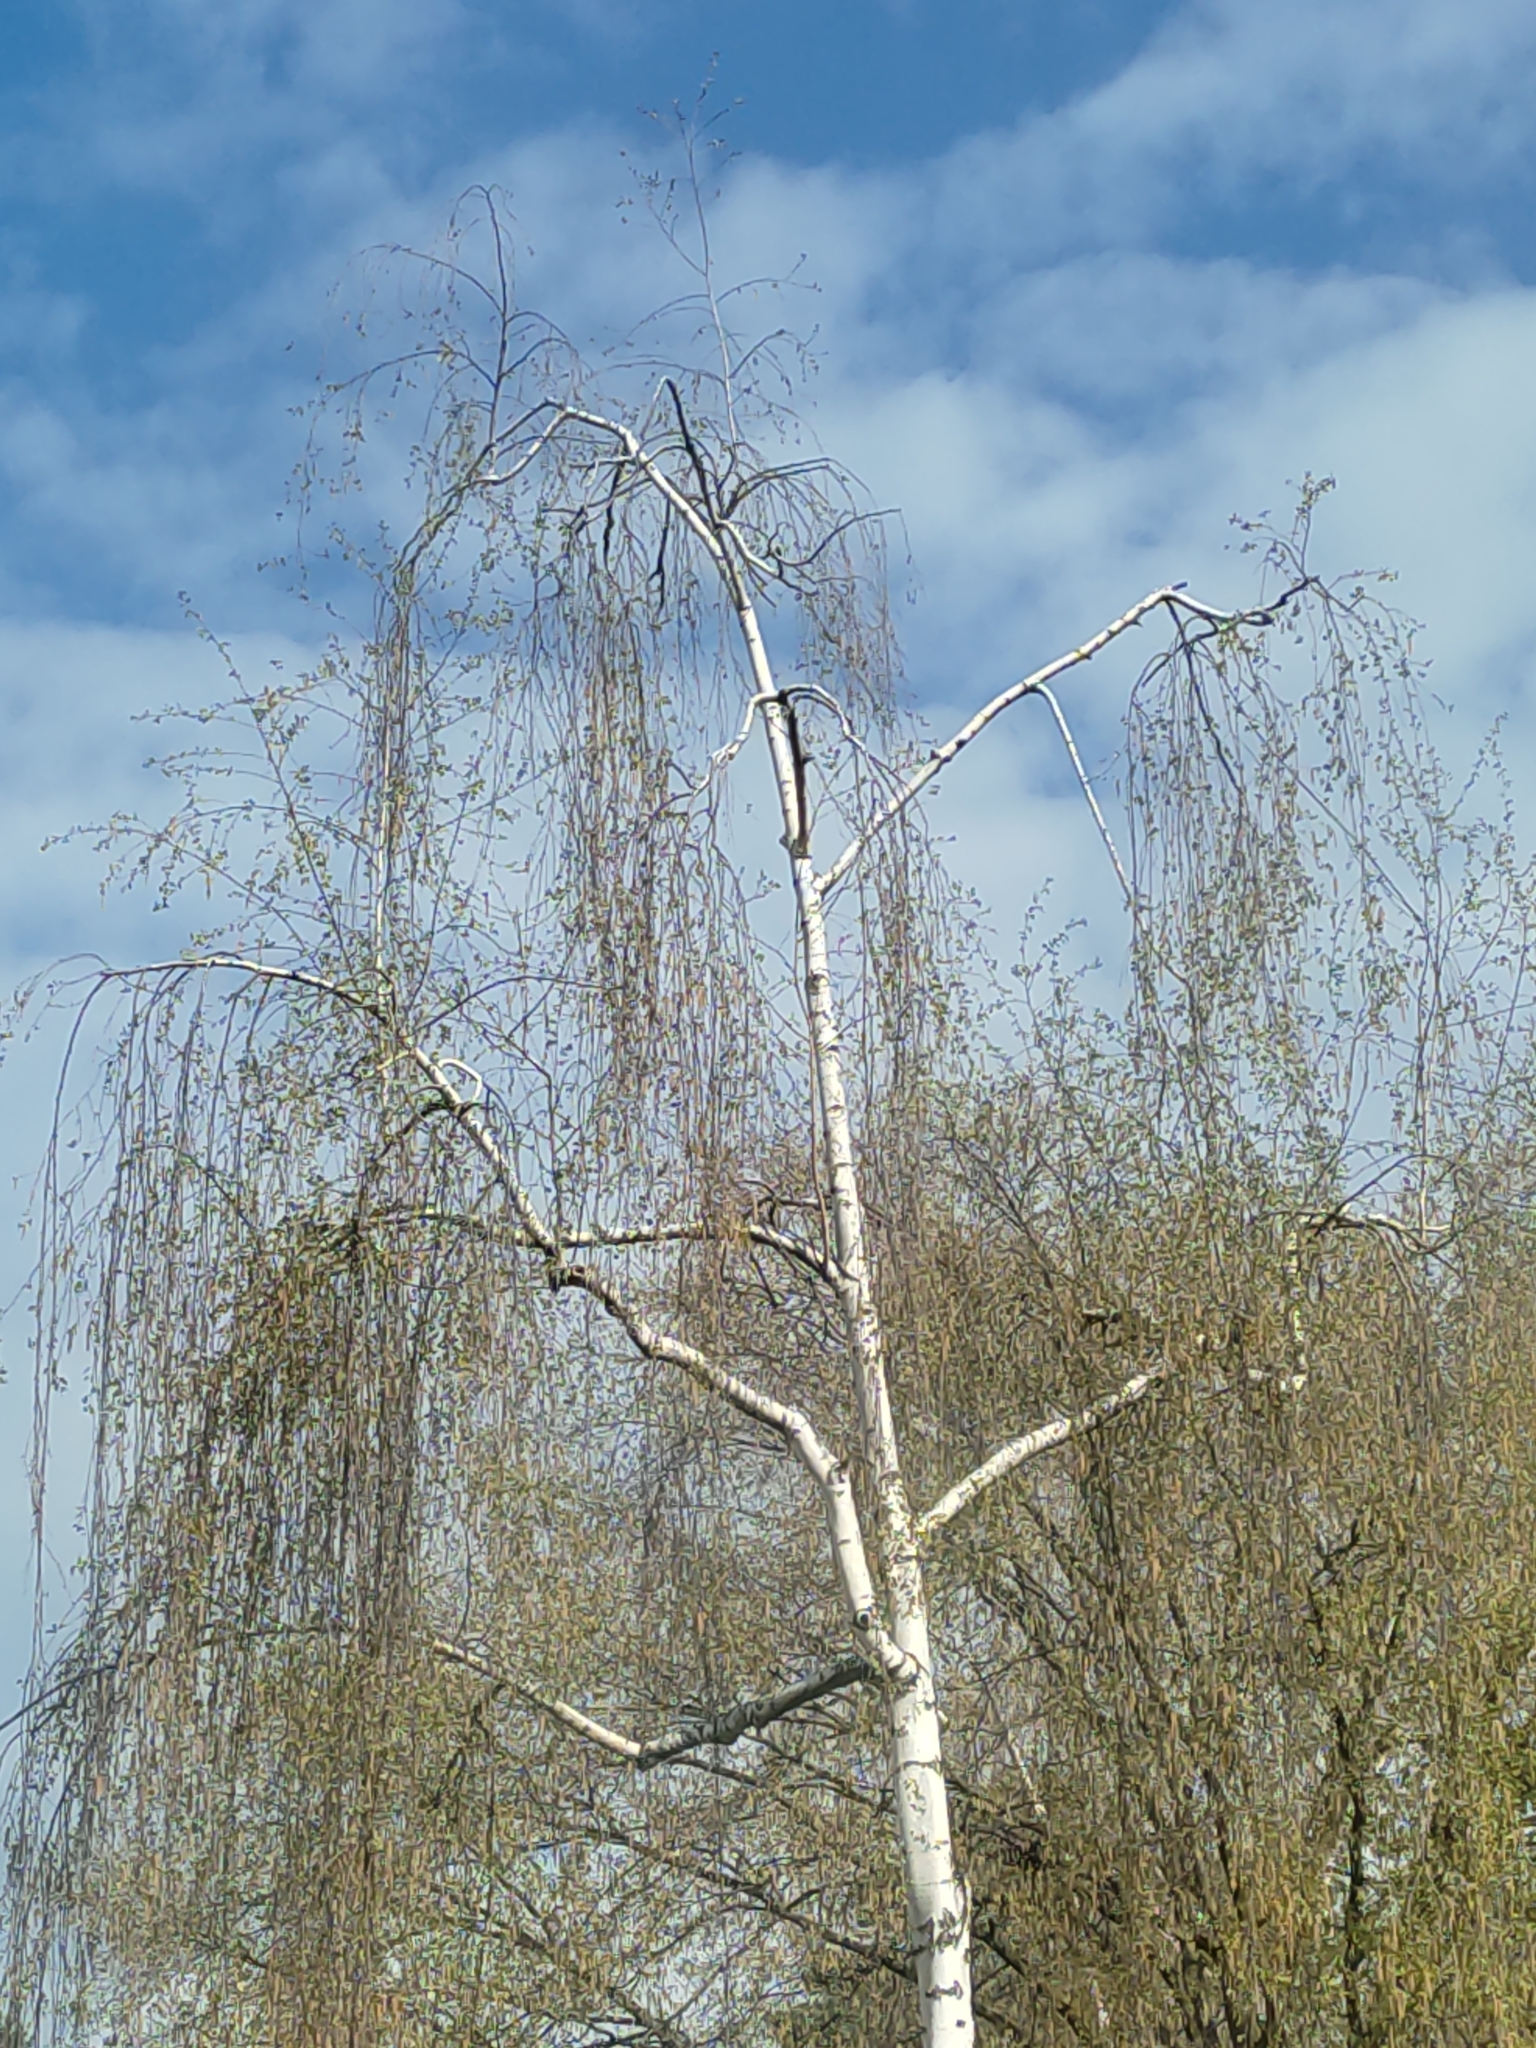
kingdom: Plantae
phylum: Tracheophyta
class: Magnoliopsida
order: Fagales
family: Betulaceae
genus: Betula
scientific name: Betula pendula
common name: Silver birch
